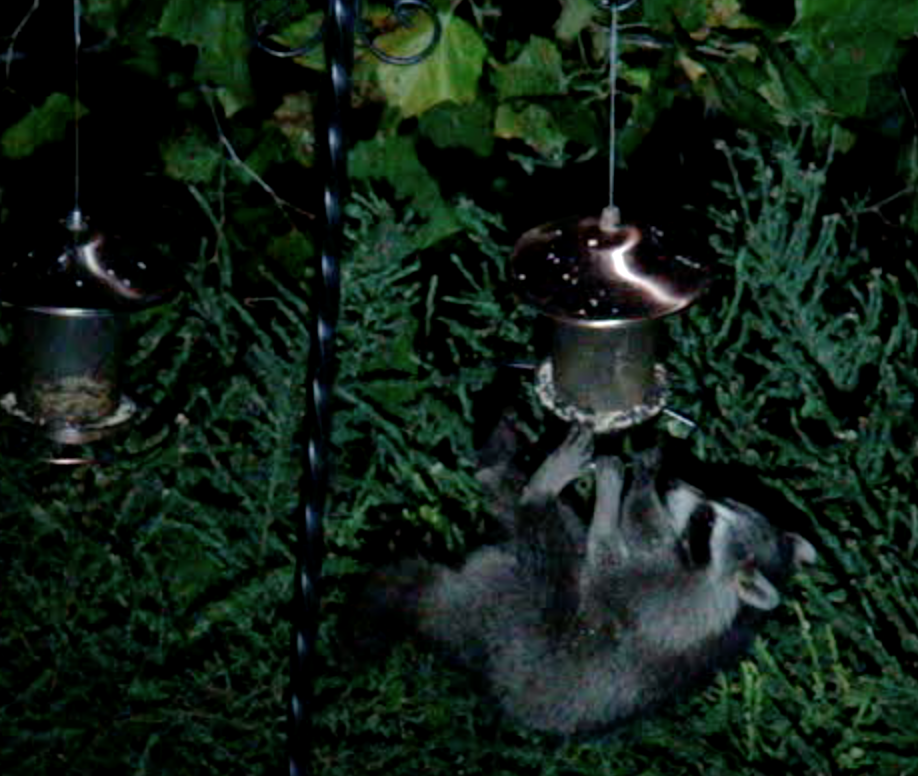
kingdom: Animalia
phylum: Chordata
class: Mammalia
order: Carnivora
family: Procyonidae
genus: Procyon
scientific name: Procyon lotor
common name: Raccoon
